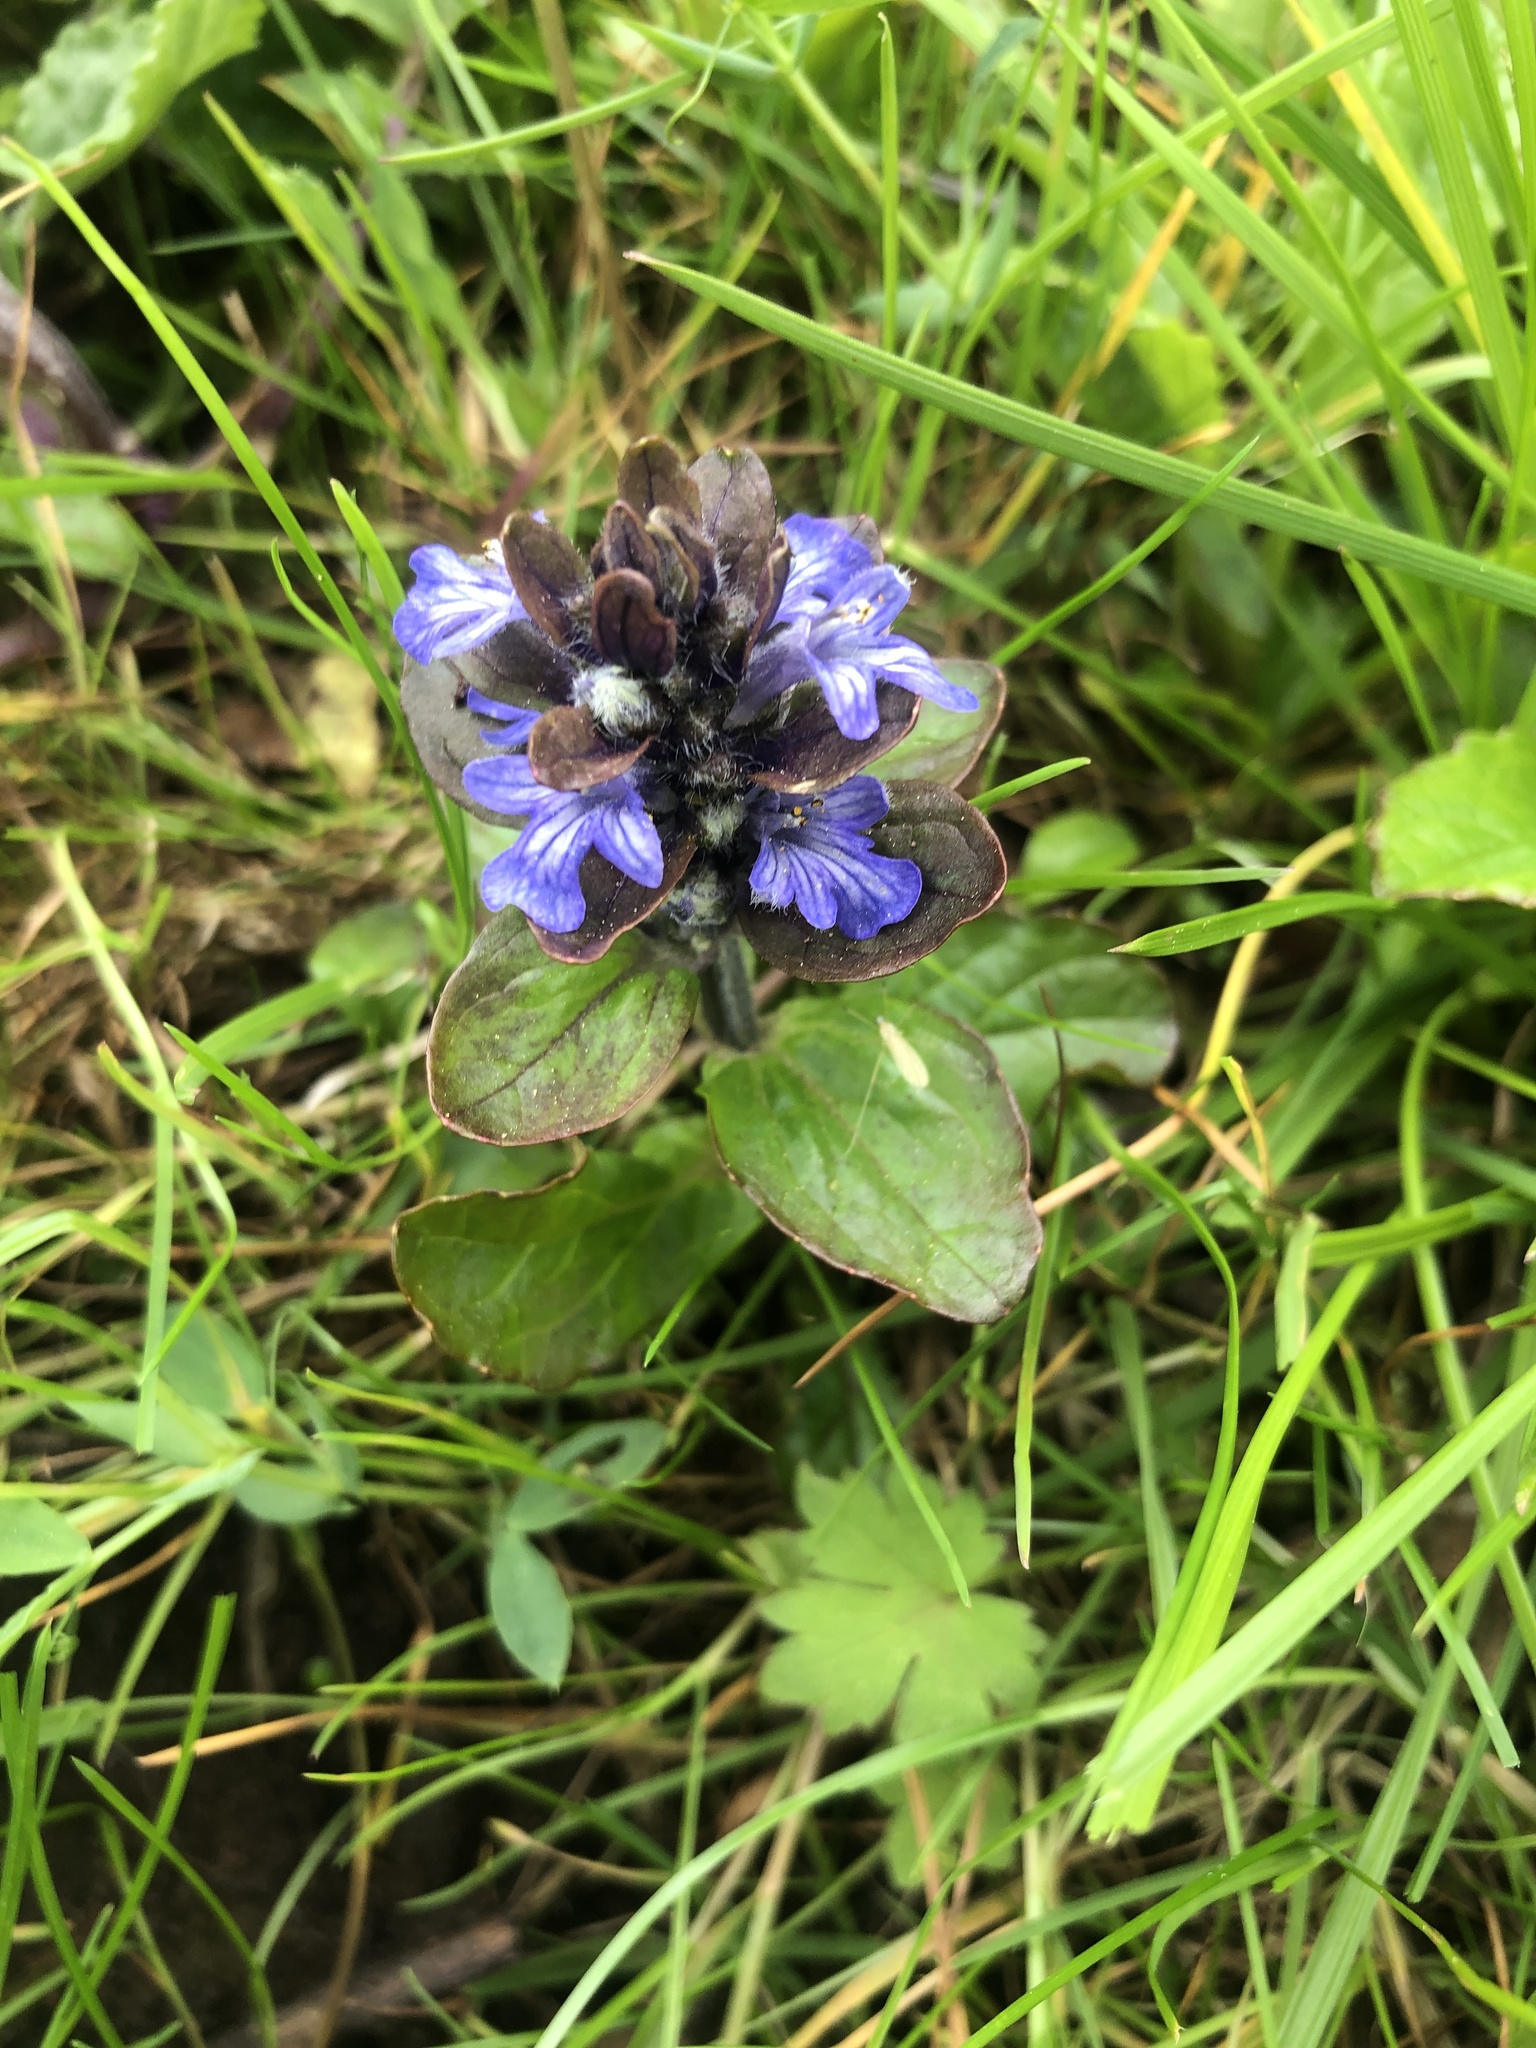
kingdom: Plantae
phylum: Tracheophyta
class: Magnoliopsida
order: Lamiales
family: Lamiaceae
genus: Ajuga
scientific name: Ajuga reptans
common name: Bugle
